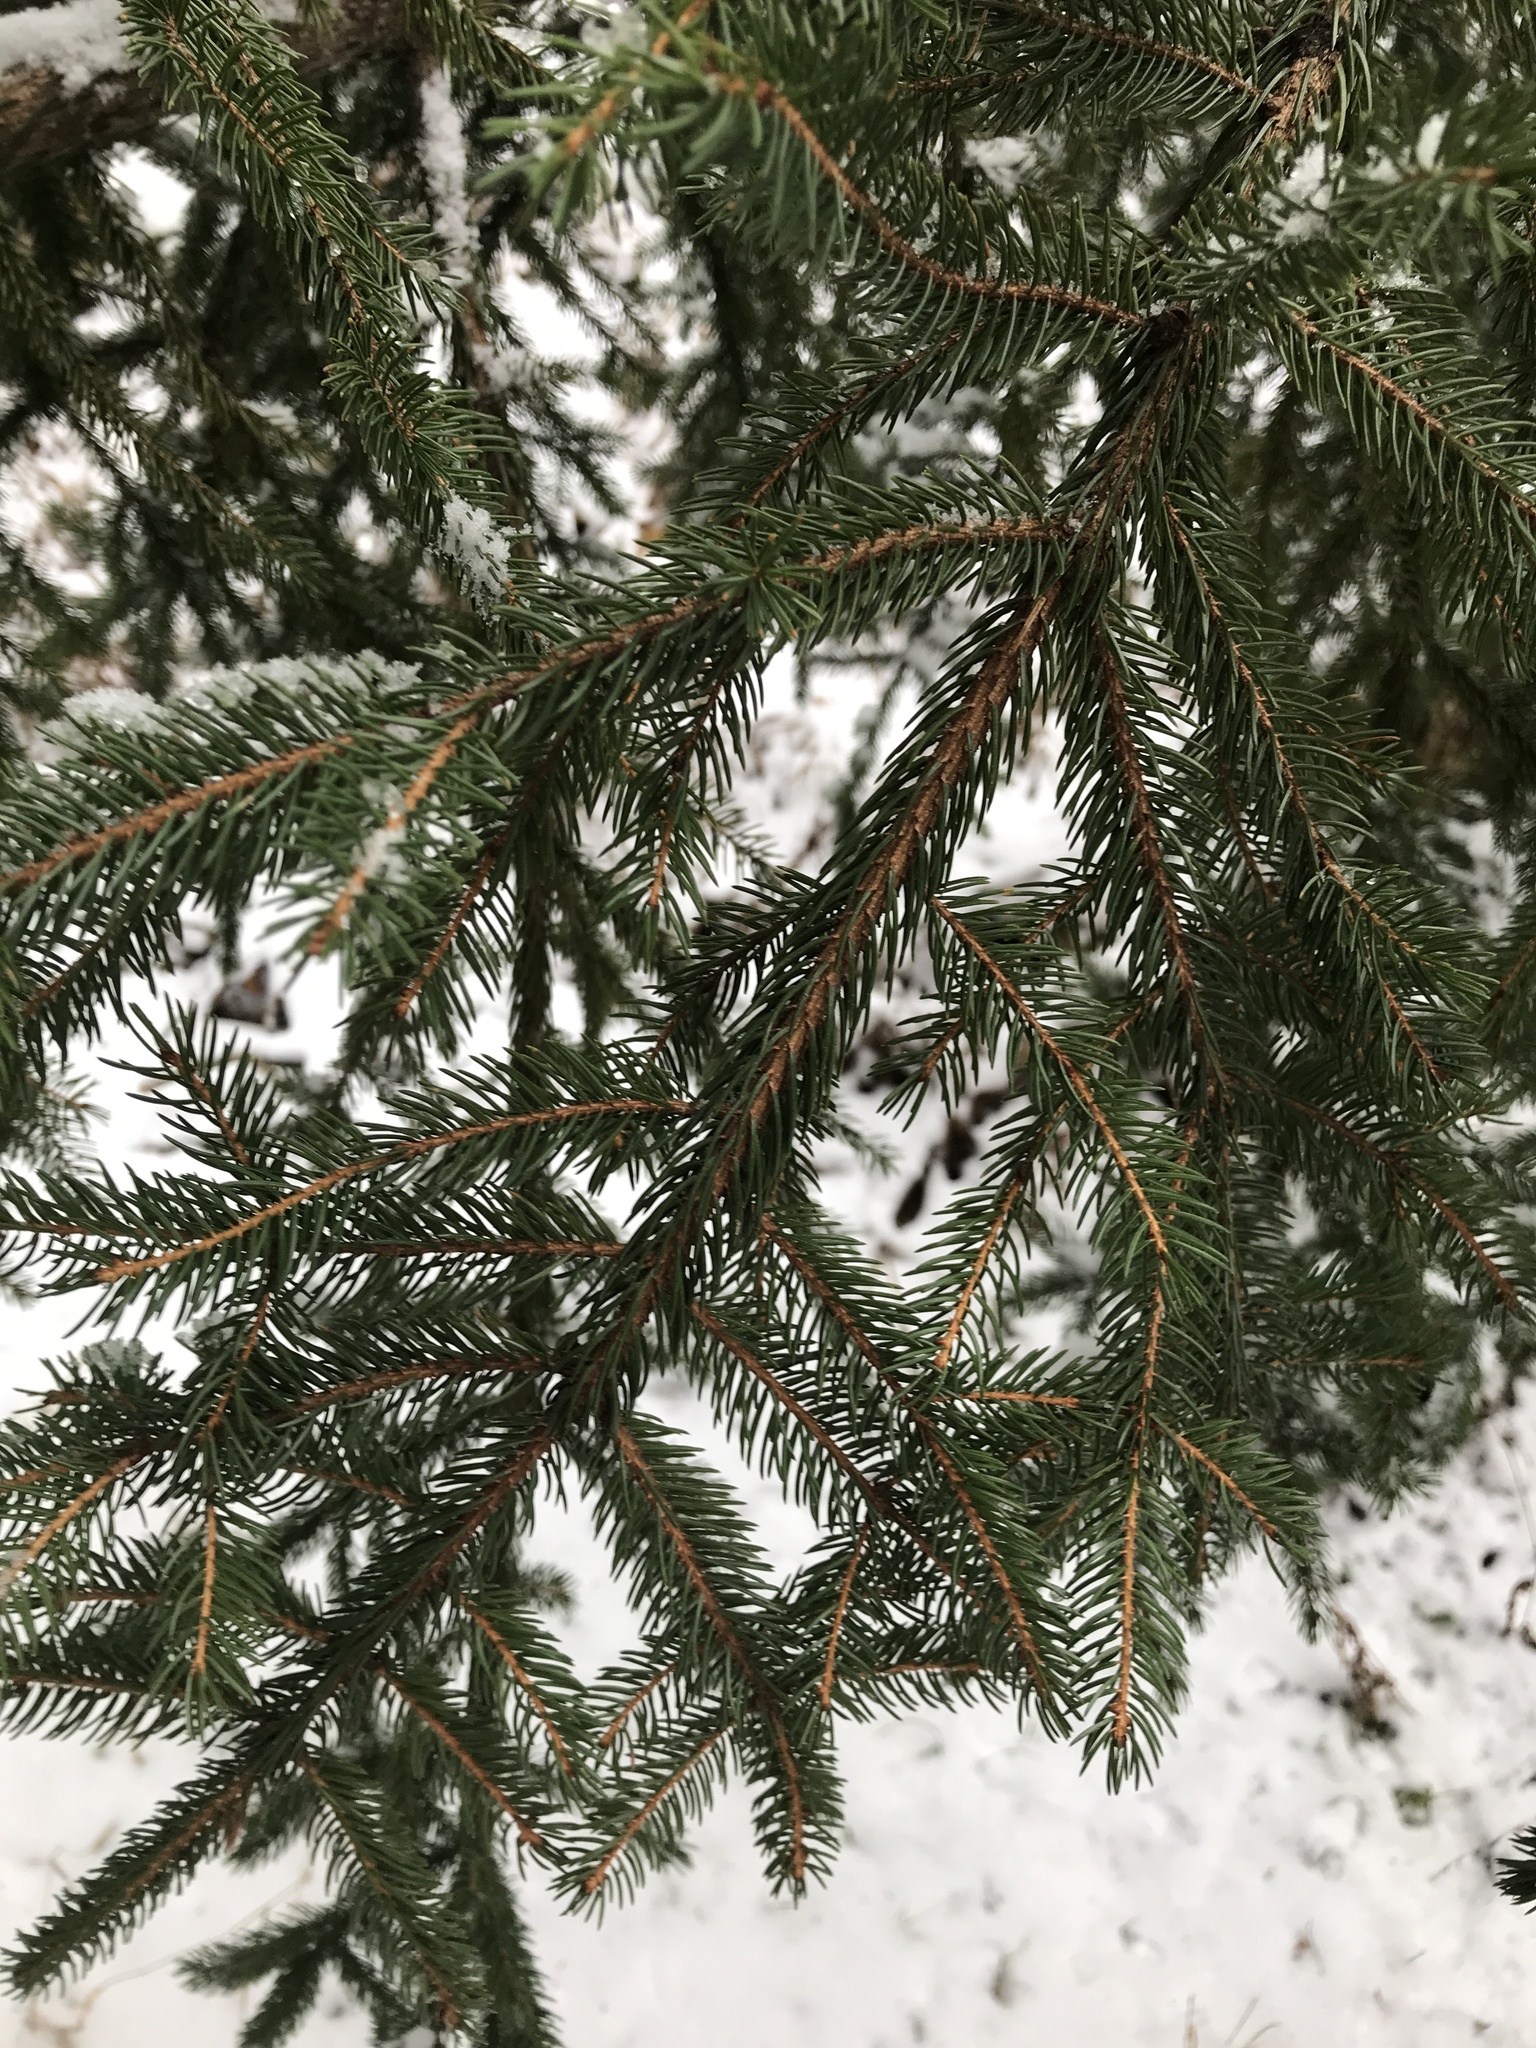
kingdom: Plantae
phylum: Tracheophyta
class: Pinopsida
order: Pinales
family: Pinaceae
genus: Picea
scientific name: Picea rubens
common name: Red spruce
